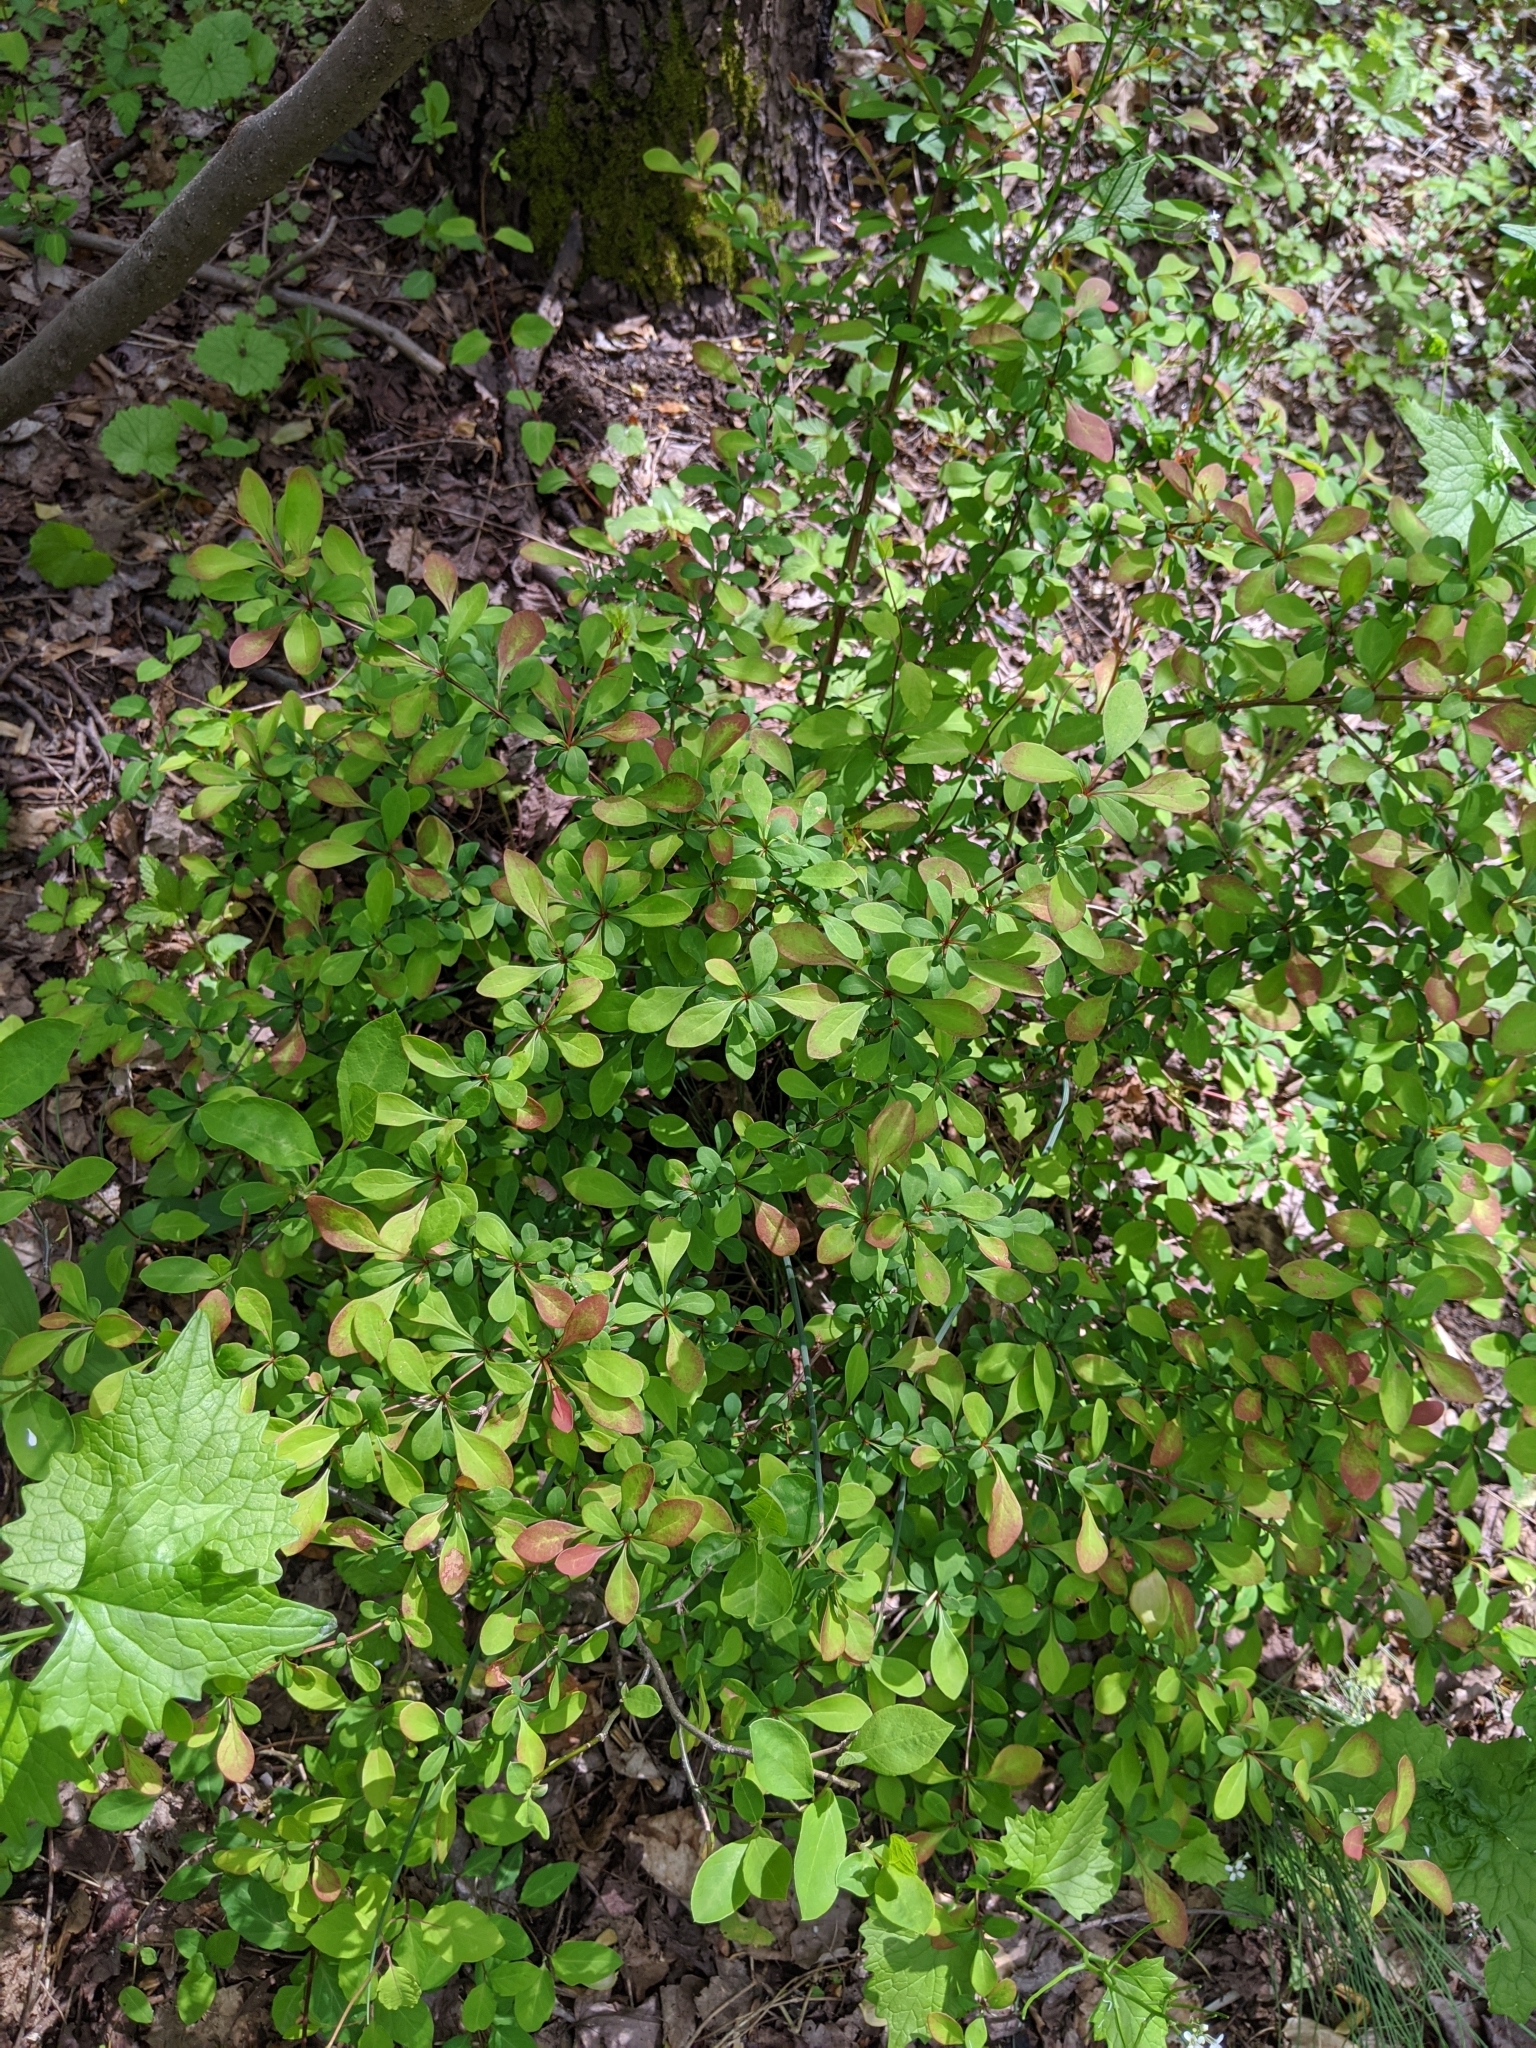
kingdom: Plantae
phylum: Tracheophyta
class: Magnoliopsida
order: Ranunculales
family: Berberidaceae
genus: Berberis
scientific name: Berberis thunbergii
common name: Japanese barberry
